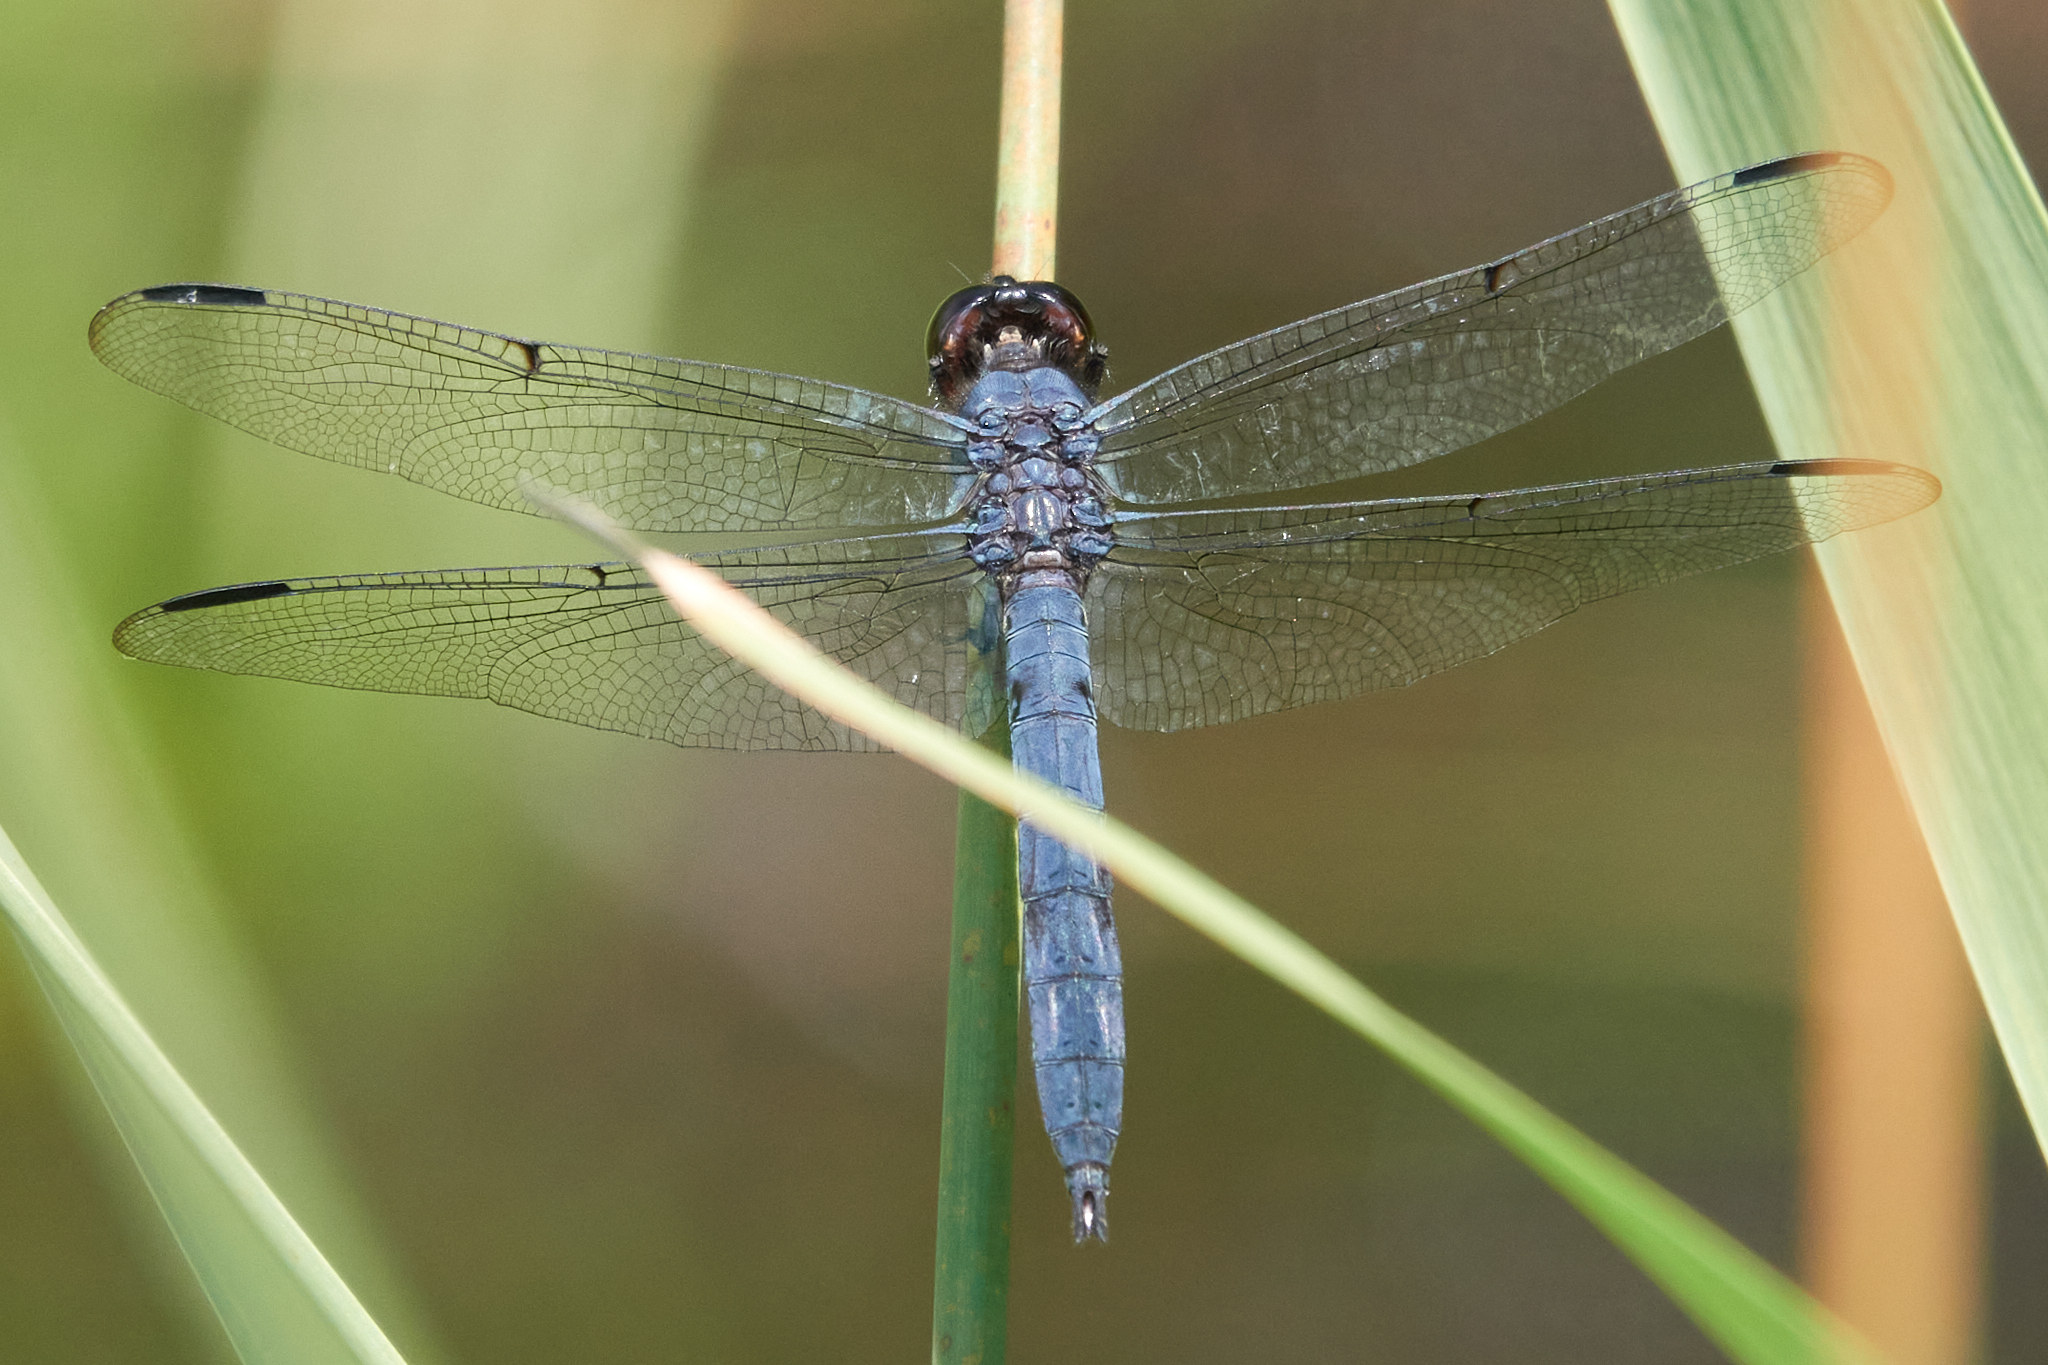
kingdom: Animalia
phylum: Arthropoda
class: Insecta
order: Odonata
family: Libellulidae
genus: Libellula
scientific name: Libellula incesta
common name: Slaty skimmer
